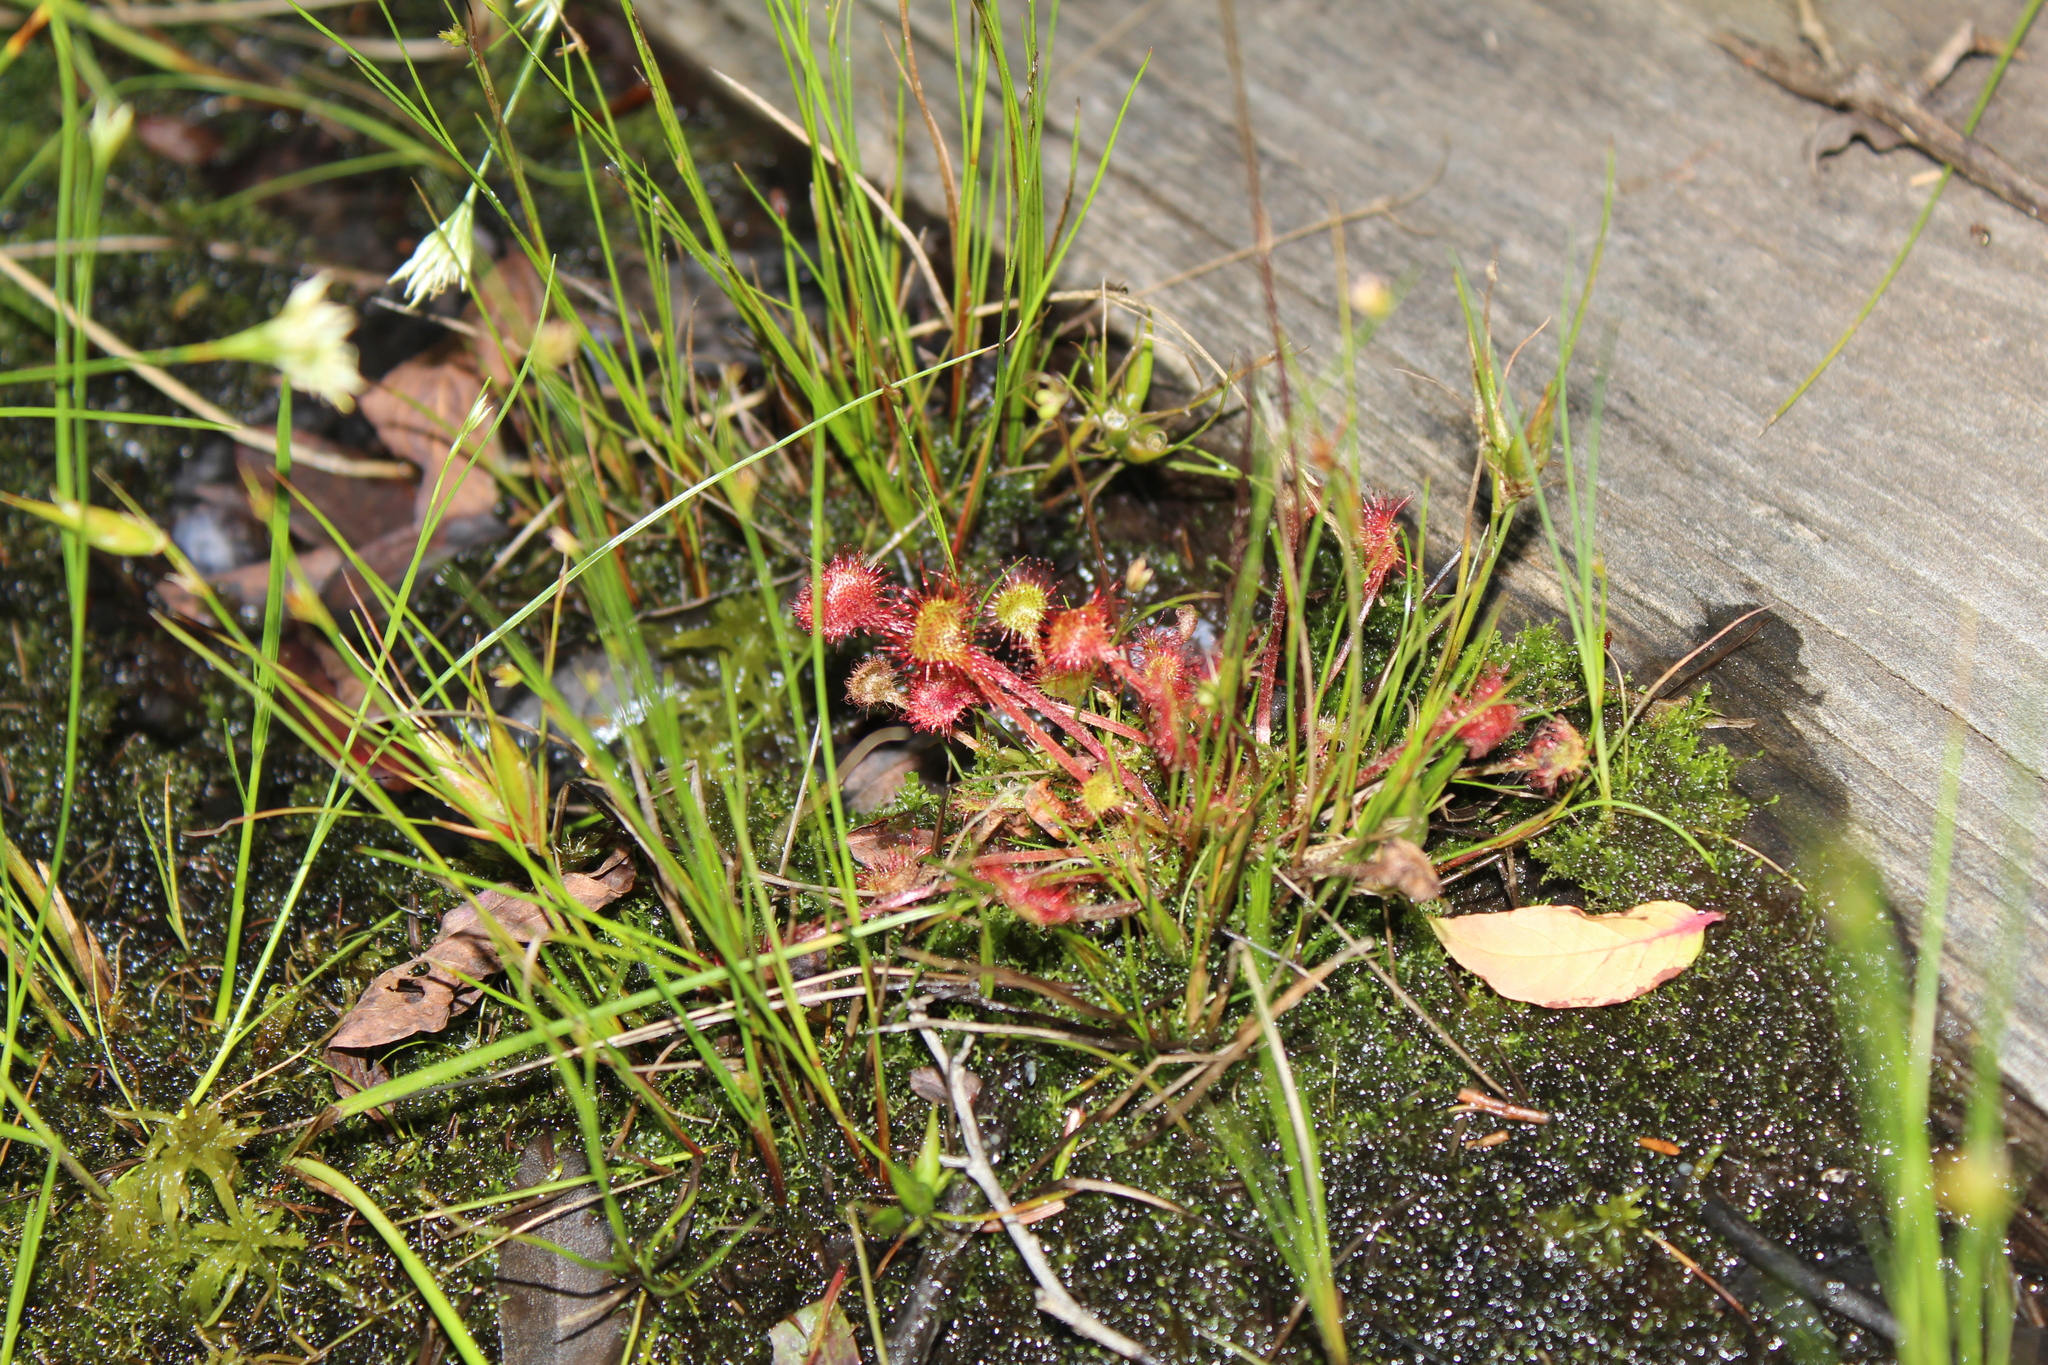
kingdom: Plantae
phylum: Tracheophyta
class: Magnoliopsida
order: Caryophyllales
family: Droseraceae
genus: Drosera
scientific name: Drosera rotundifolia
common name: Round-leaved sundew
